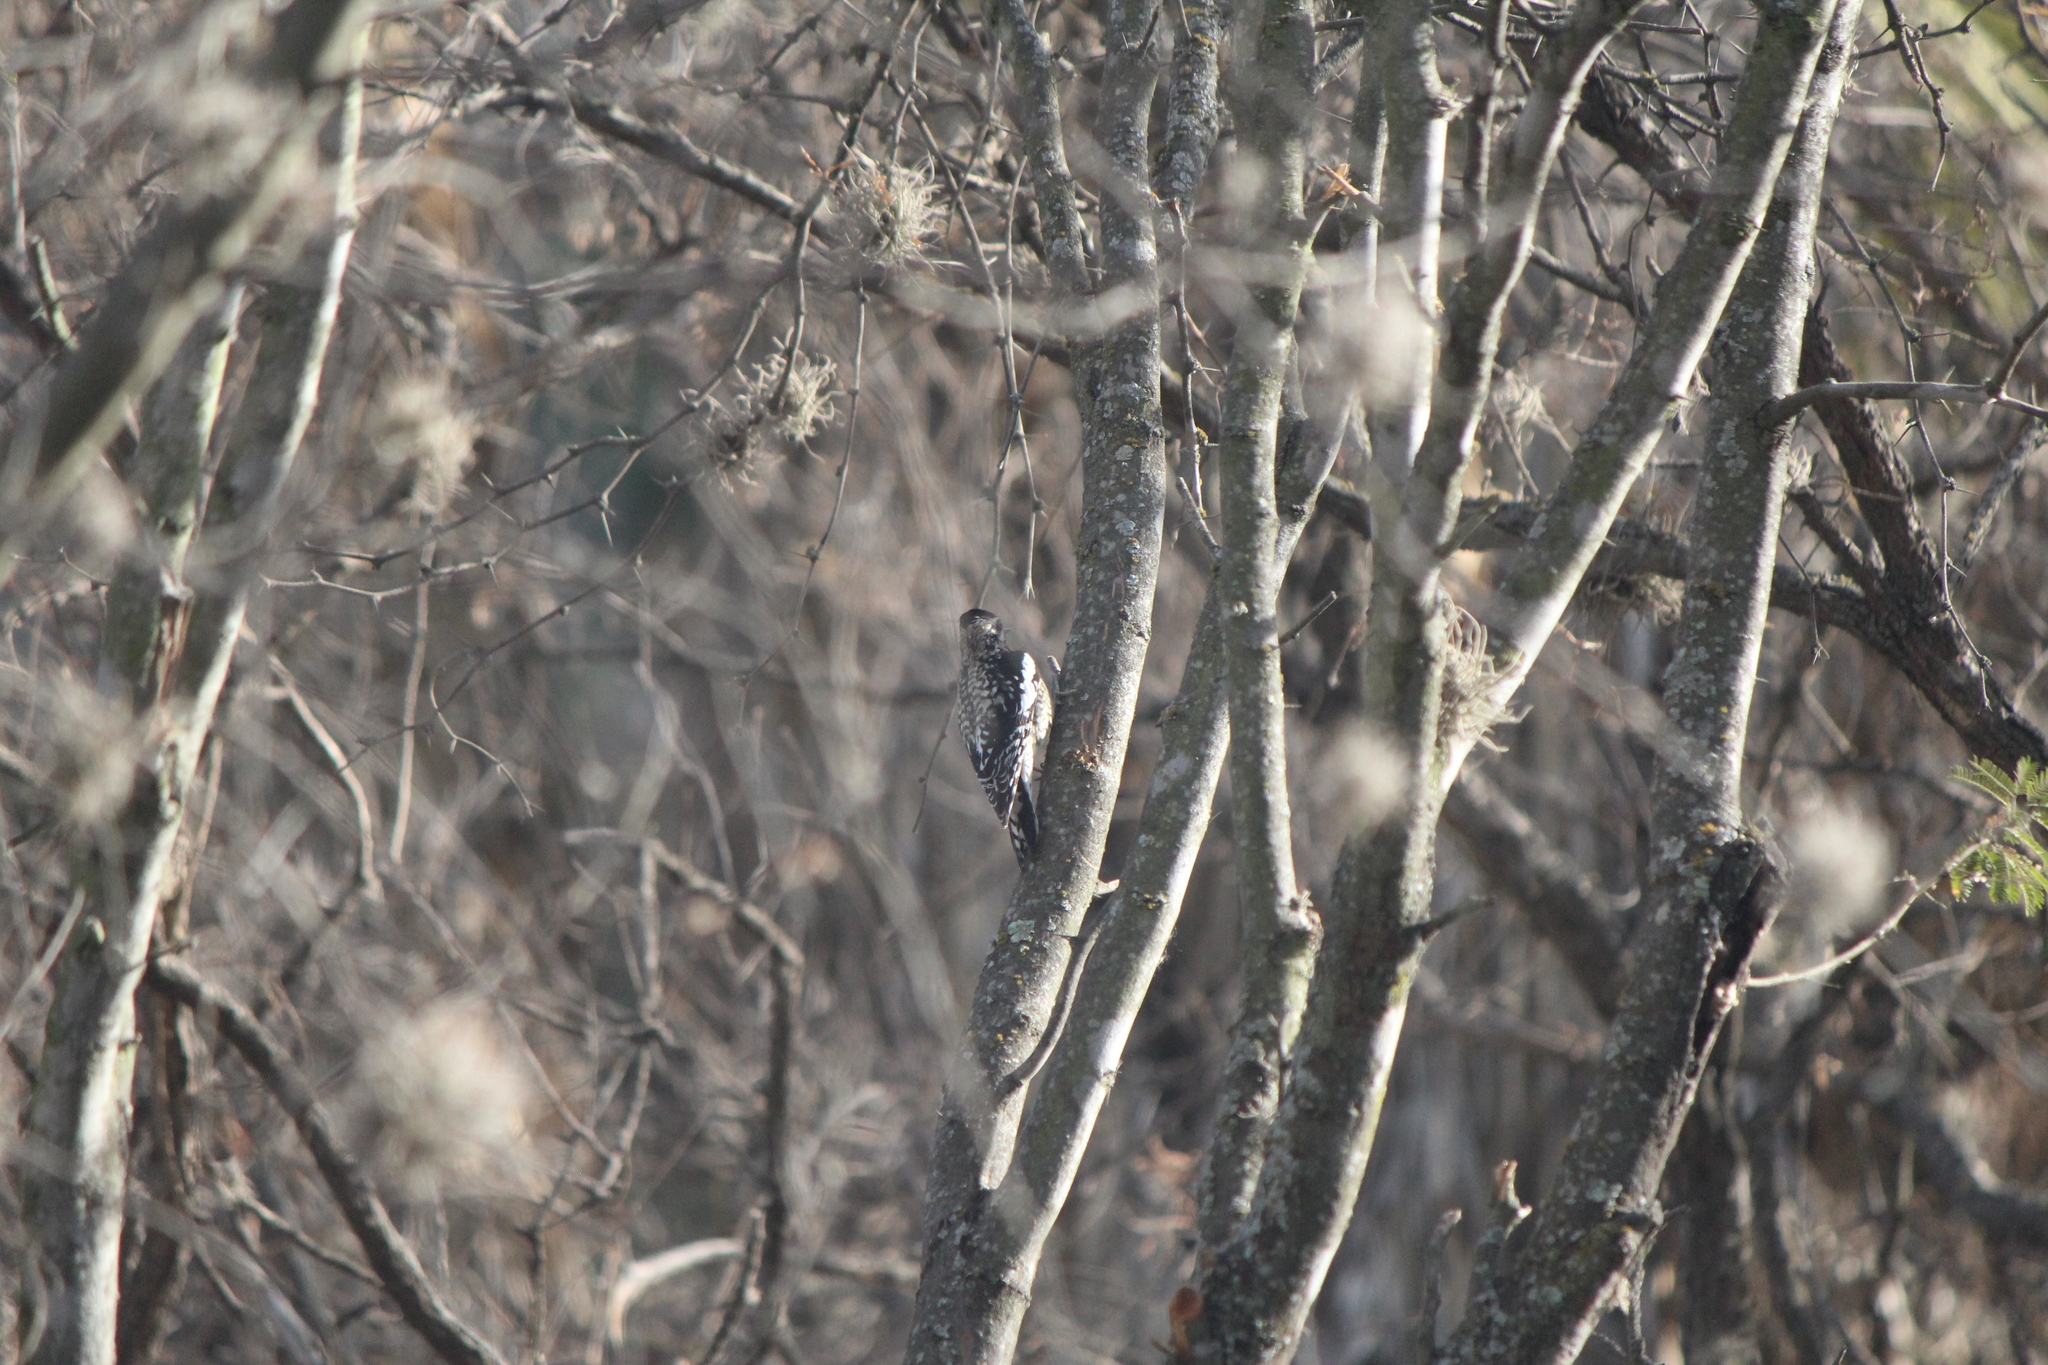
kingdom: Animalia
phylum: Chordata
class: Aves
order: Piciformes
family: Picidae
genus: Sphyrapicus
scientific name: Sphyrapicus varius
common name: Yellow-bellied sapsucker
